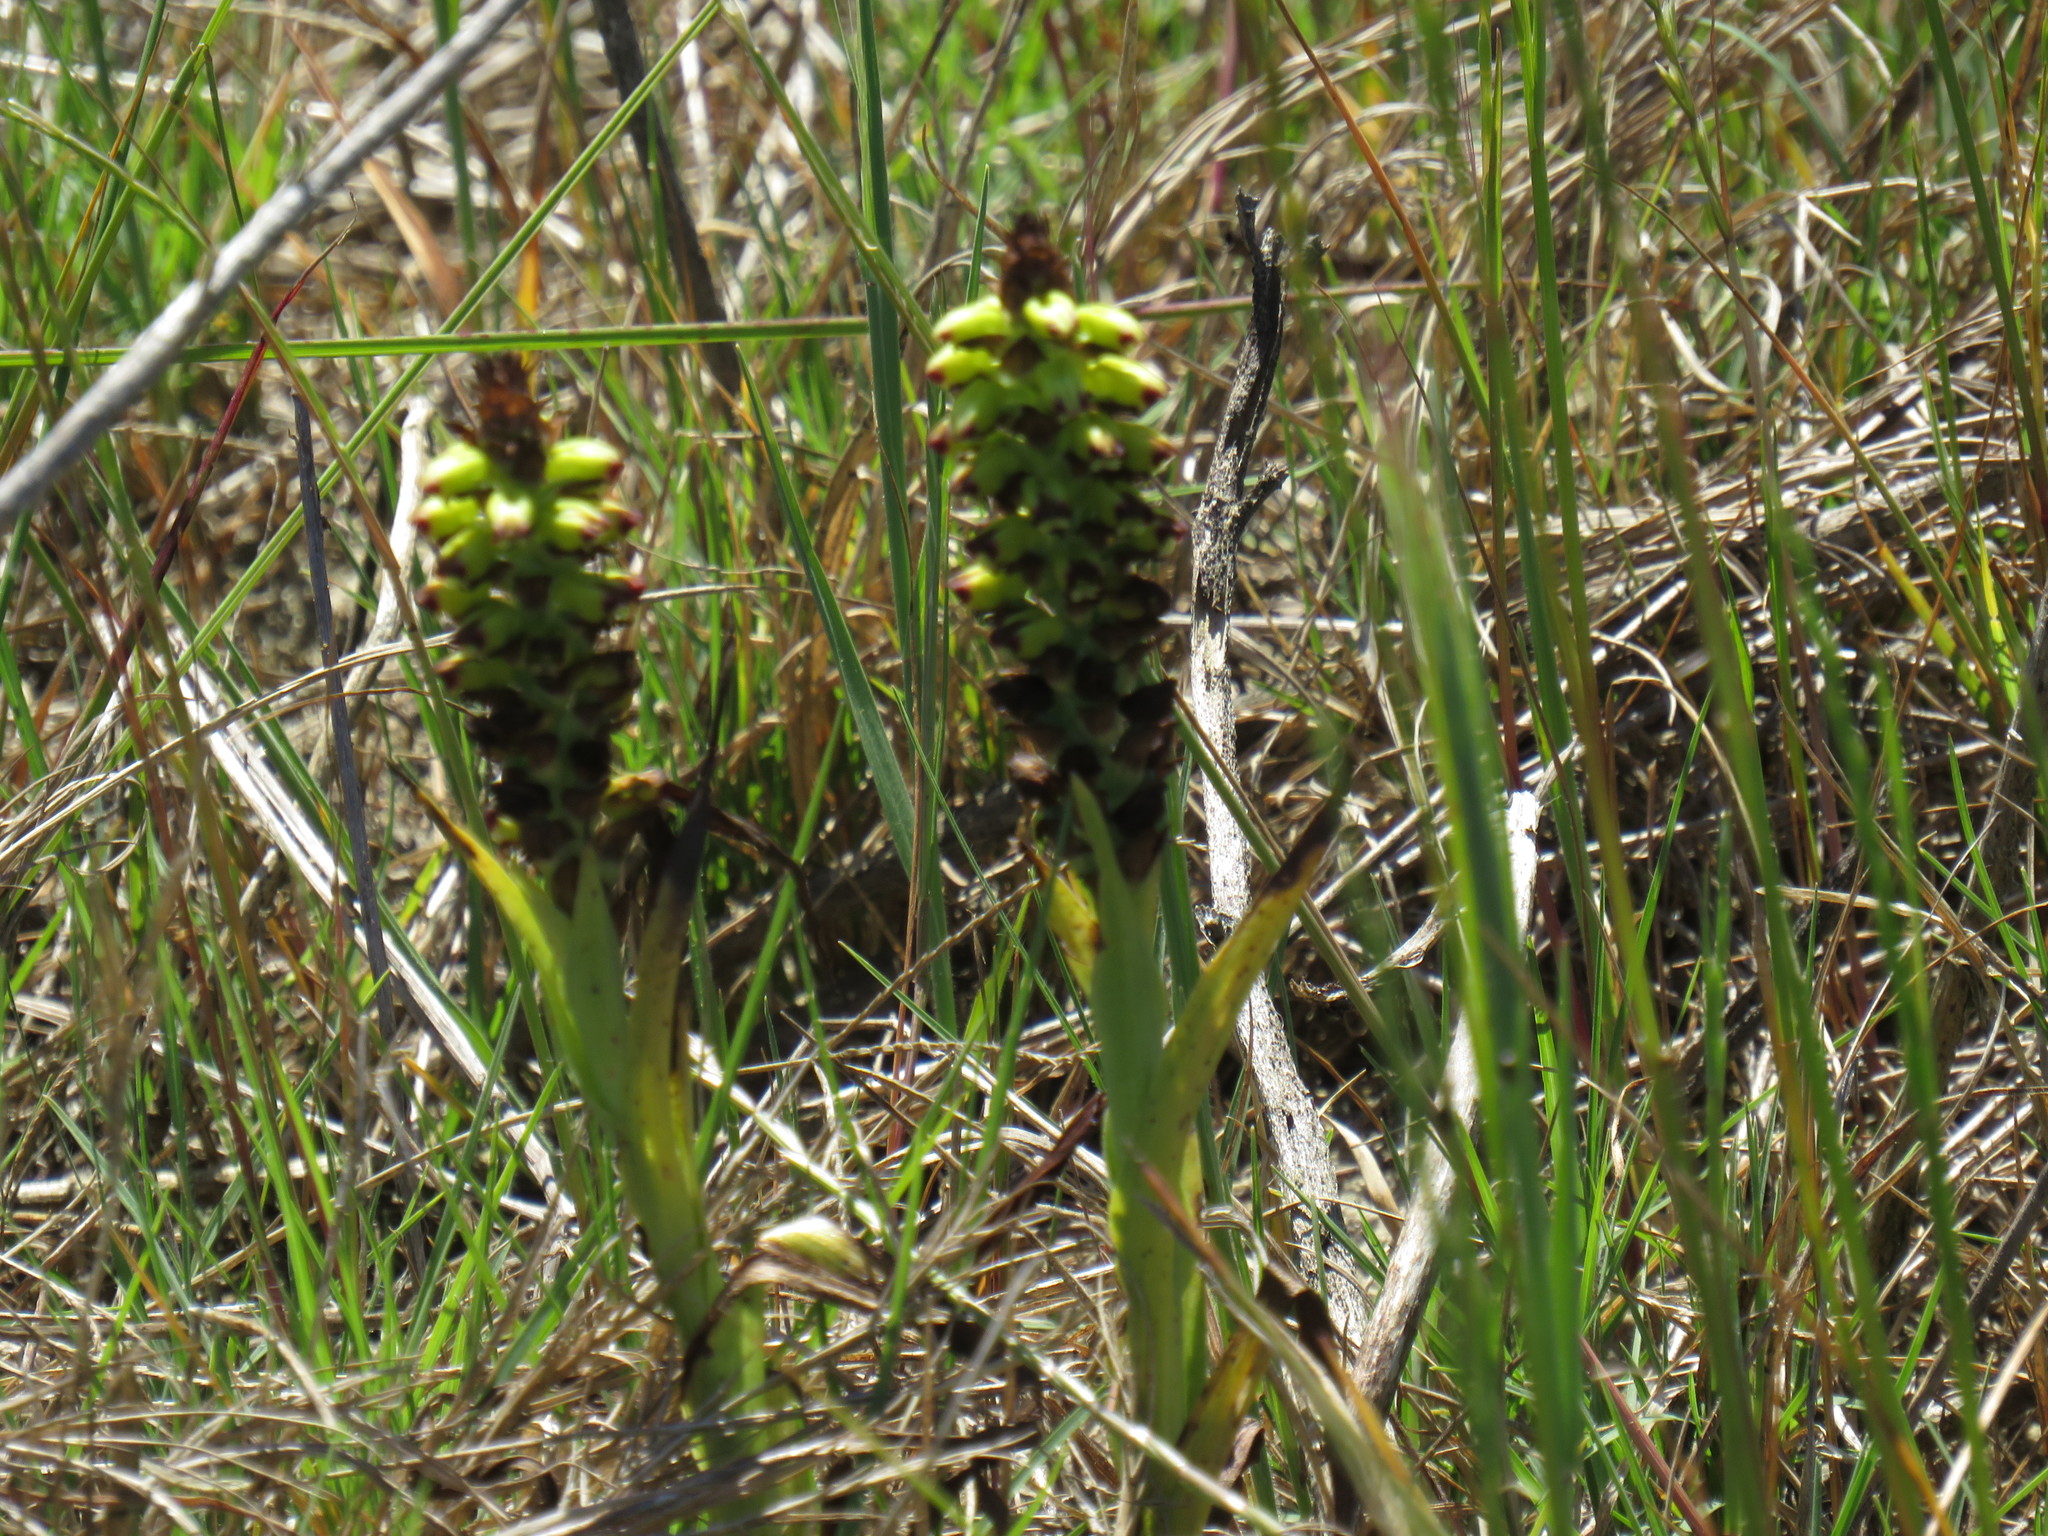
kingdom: Plantae
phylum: Tracheophyta
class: Liliopsida
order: Asparagales
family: Orchidaceae
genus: Corycium
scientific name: Corycium orobanchoides
